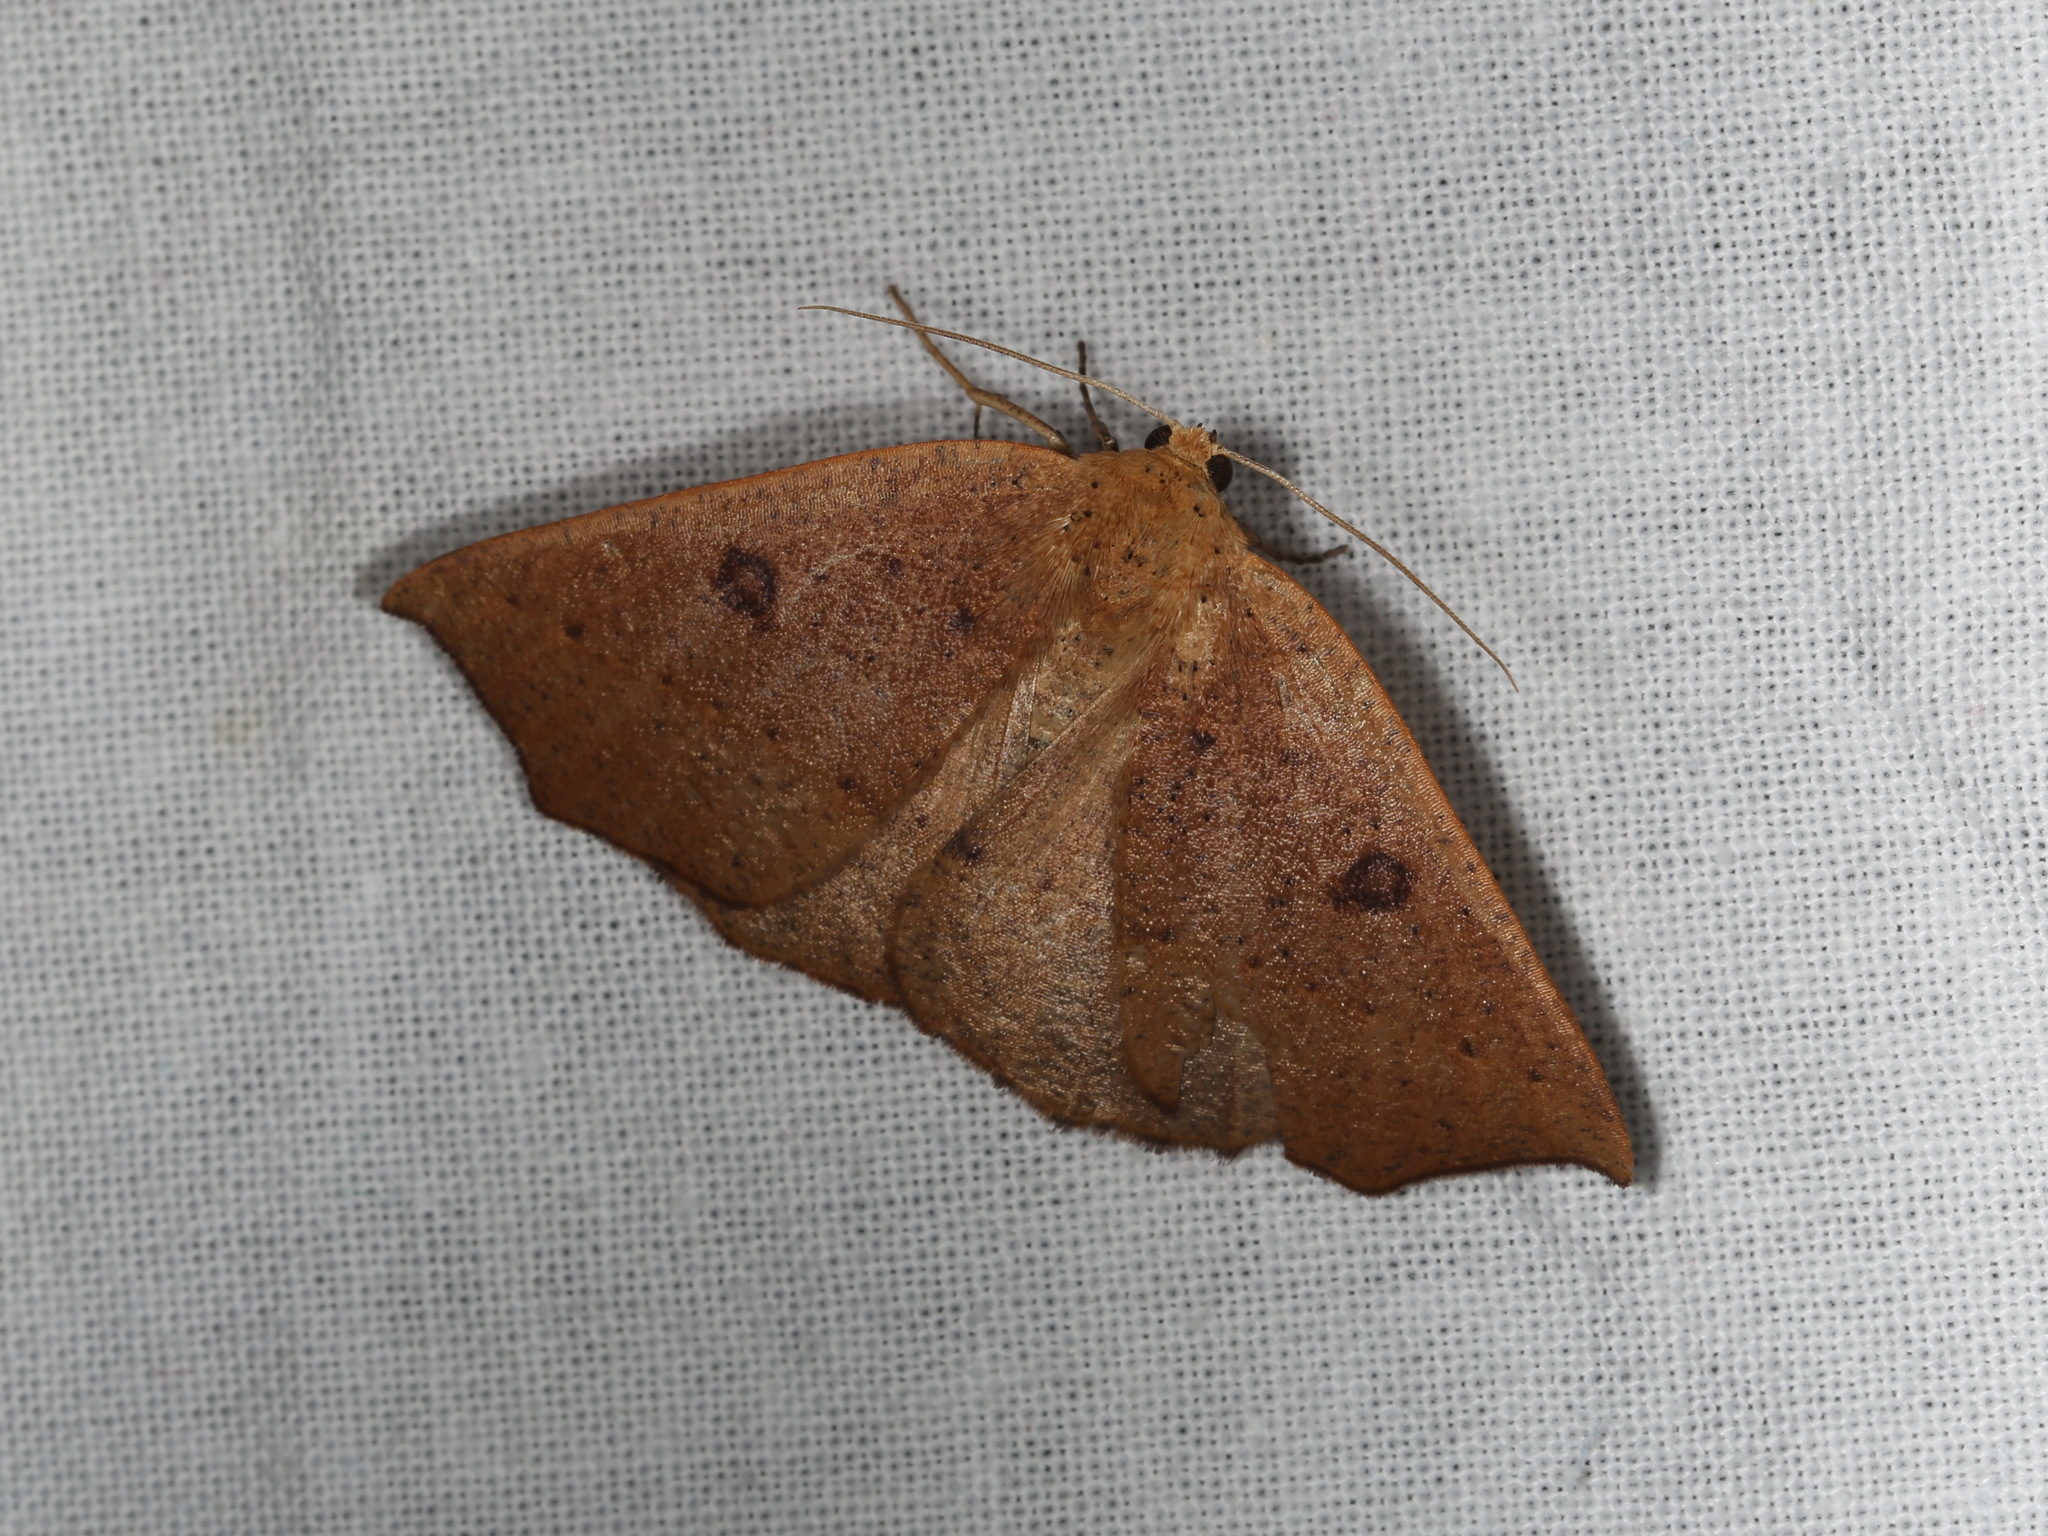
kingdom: Animalia
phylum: Arthropoda
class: Insecta
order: Lepidoptera
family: Geometridae
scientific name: Geometridae
